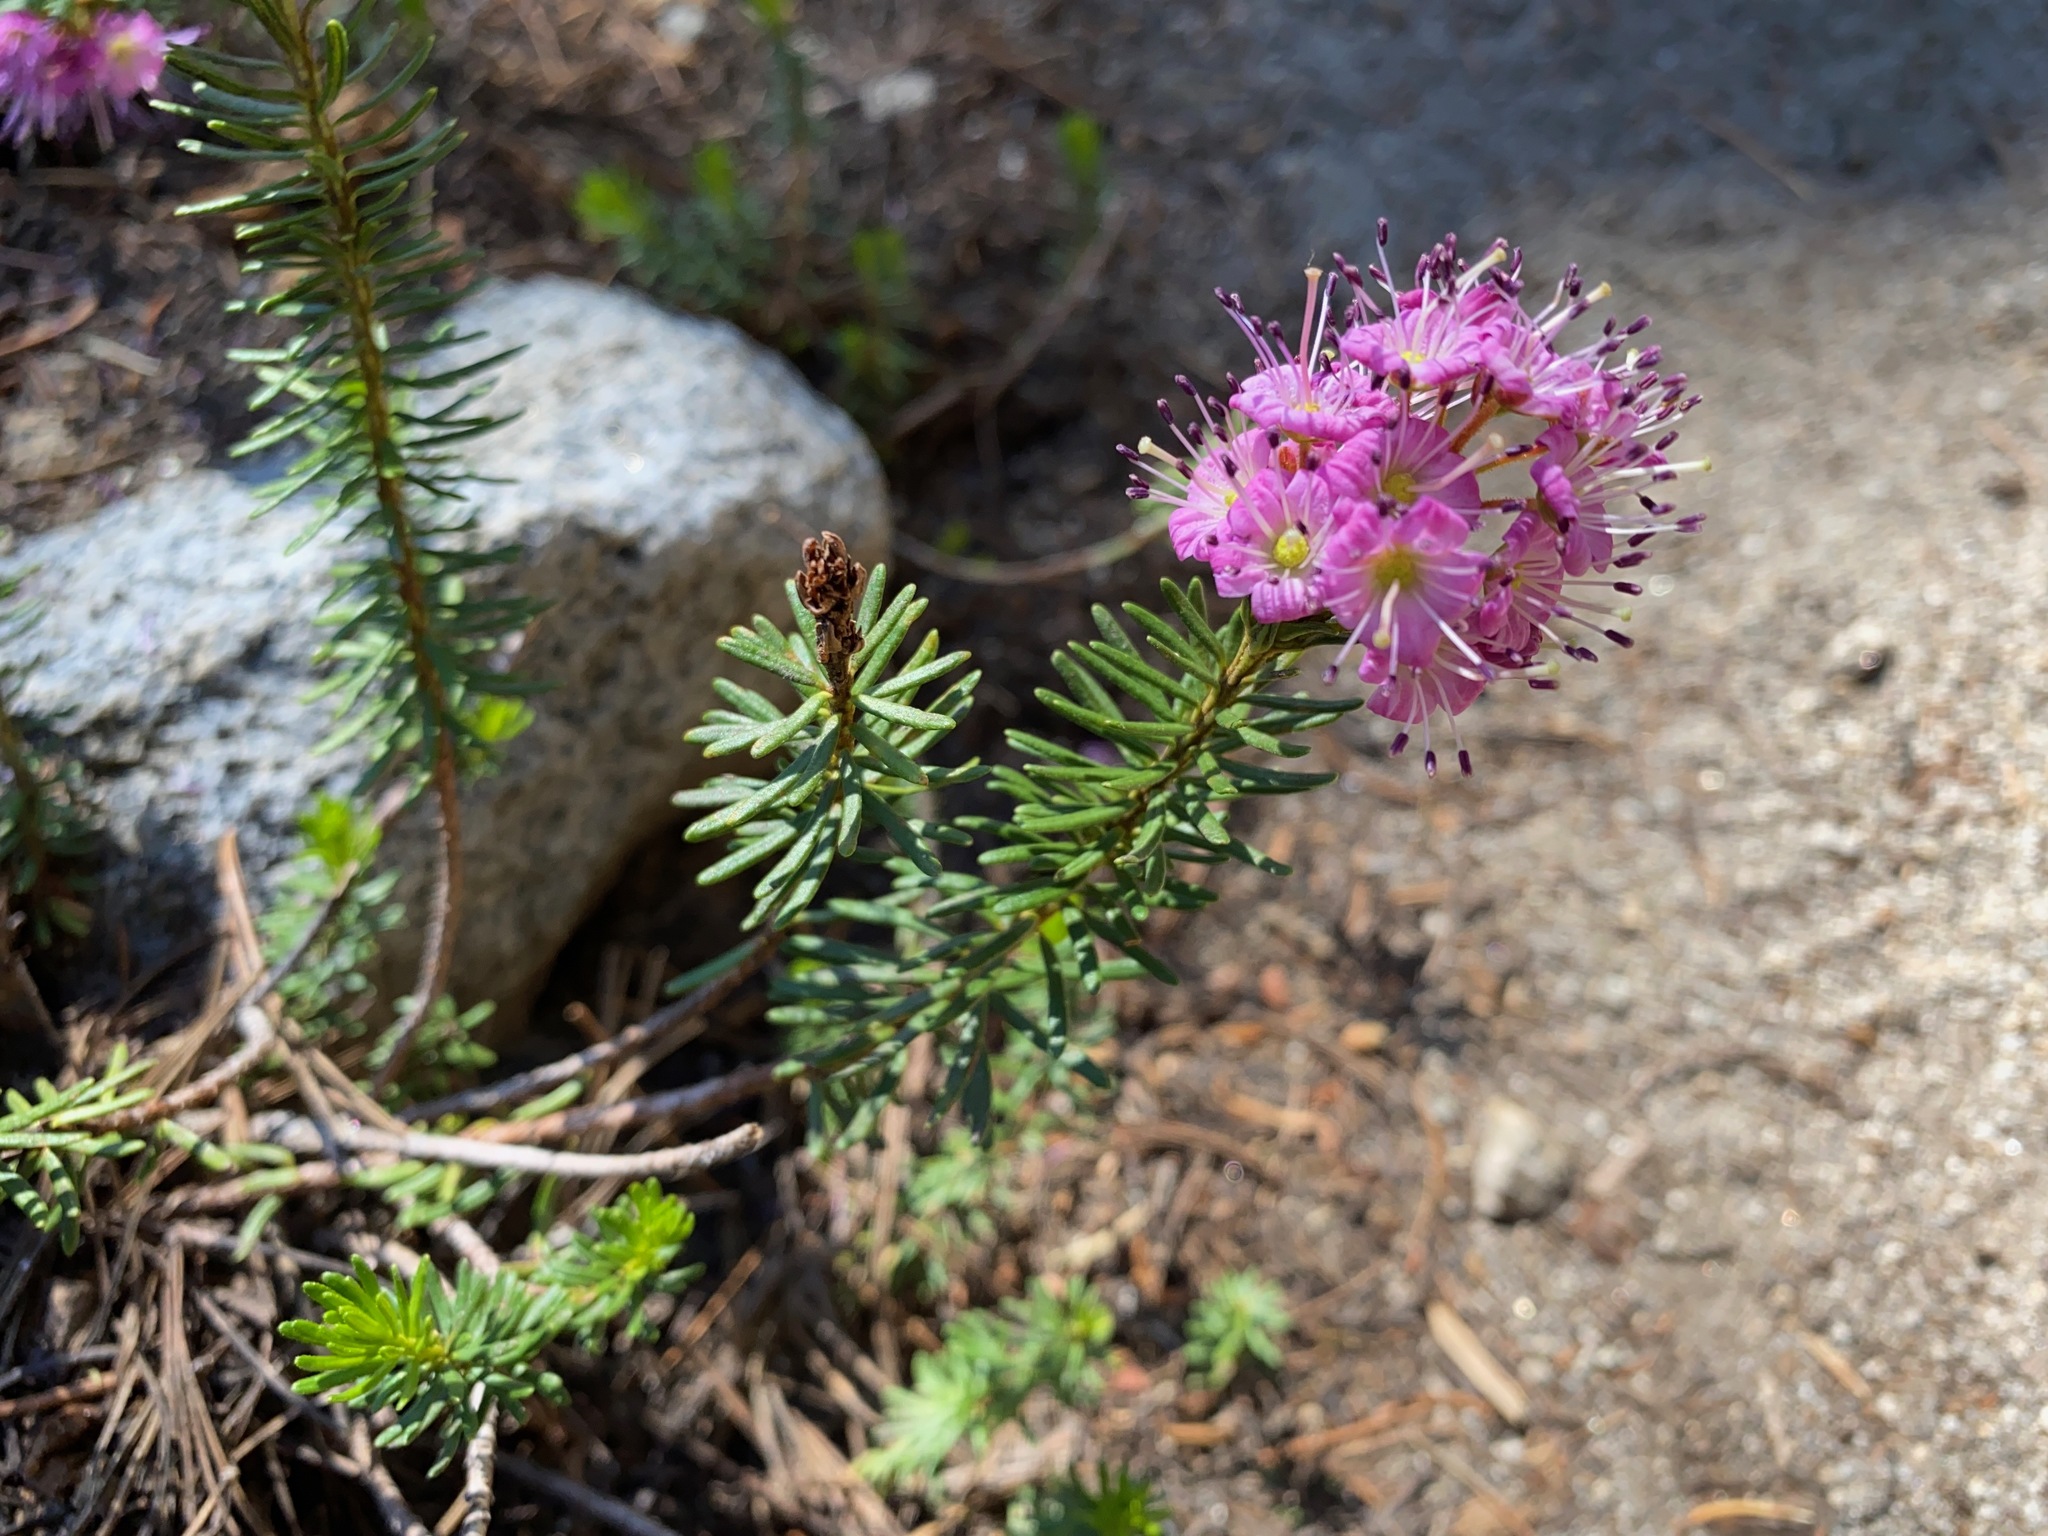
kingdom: Plantae
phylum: Tracheophyta
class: Magnoliopsida
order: Ericales
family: Ericaceae
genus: Phyllodoce
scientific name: Phyllodoce breweri
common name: Brewer's mountain-heather
